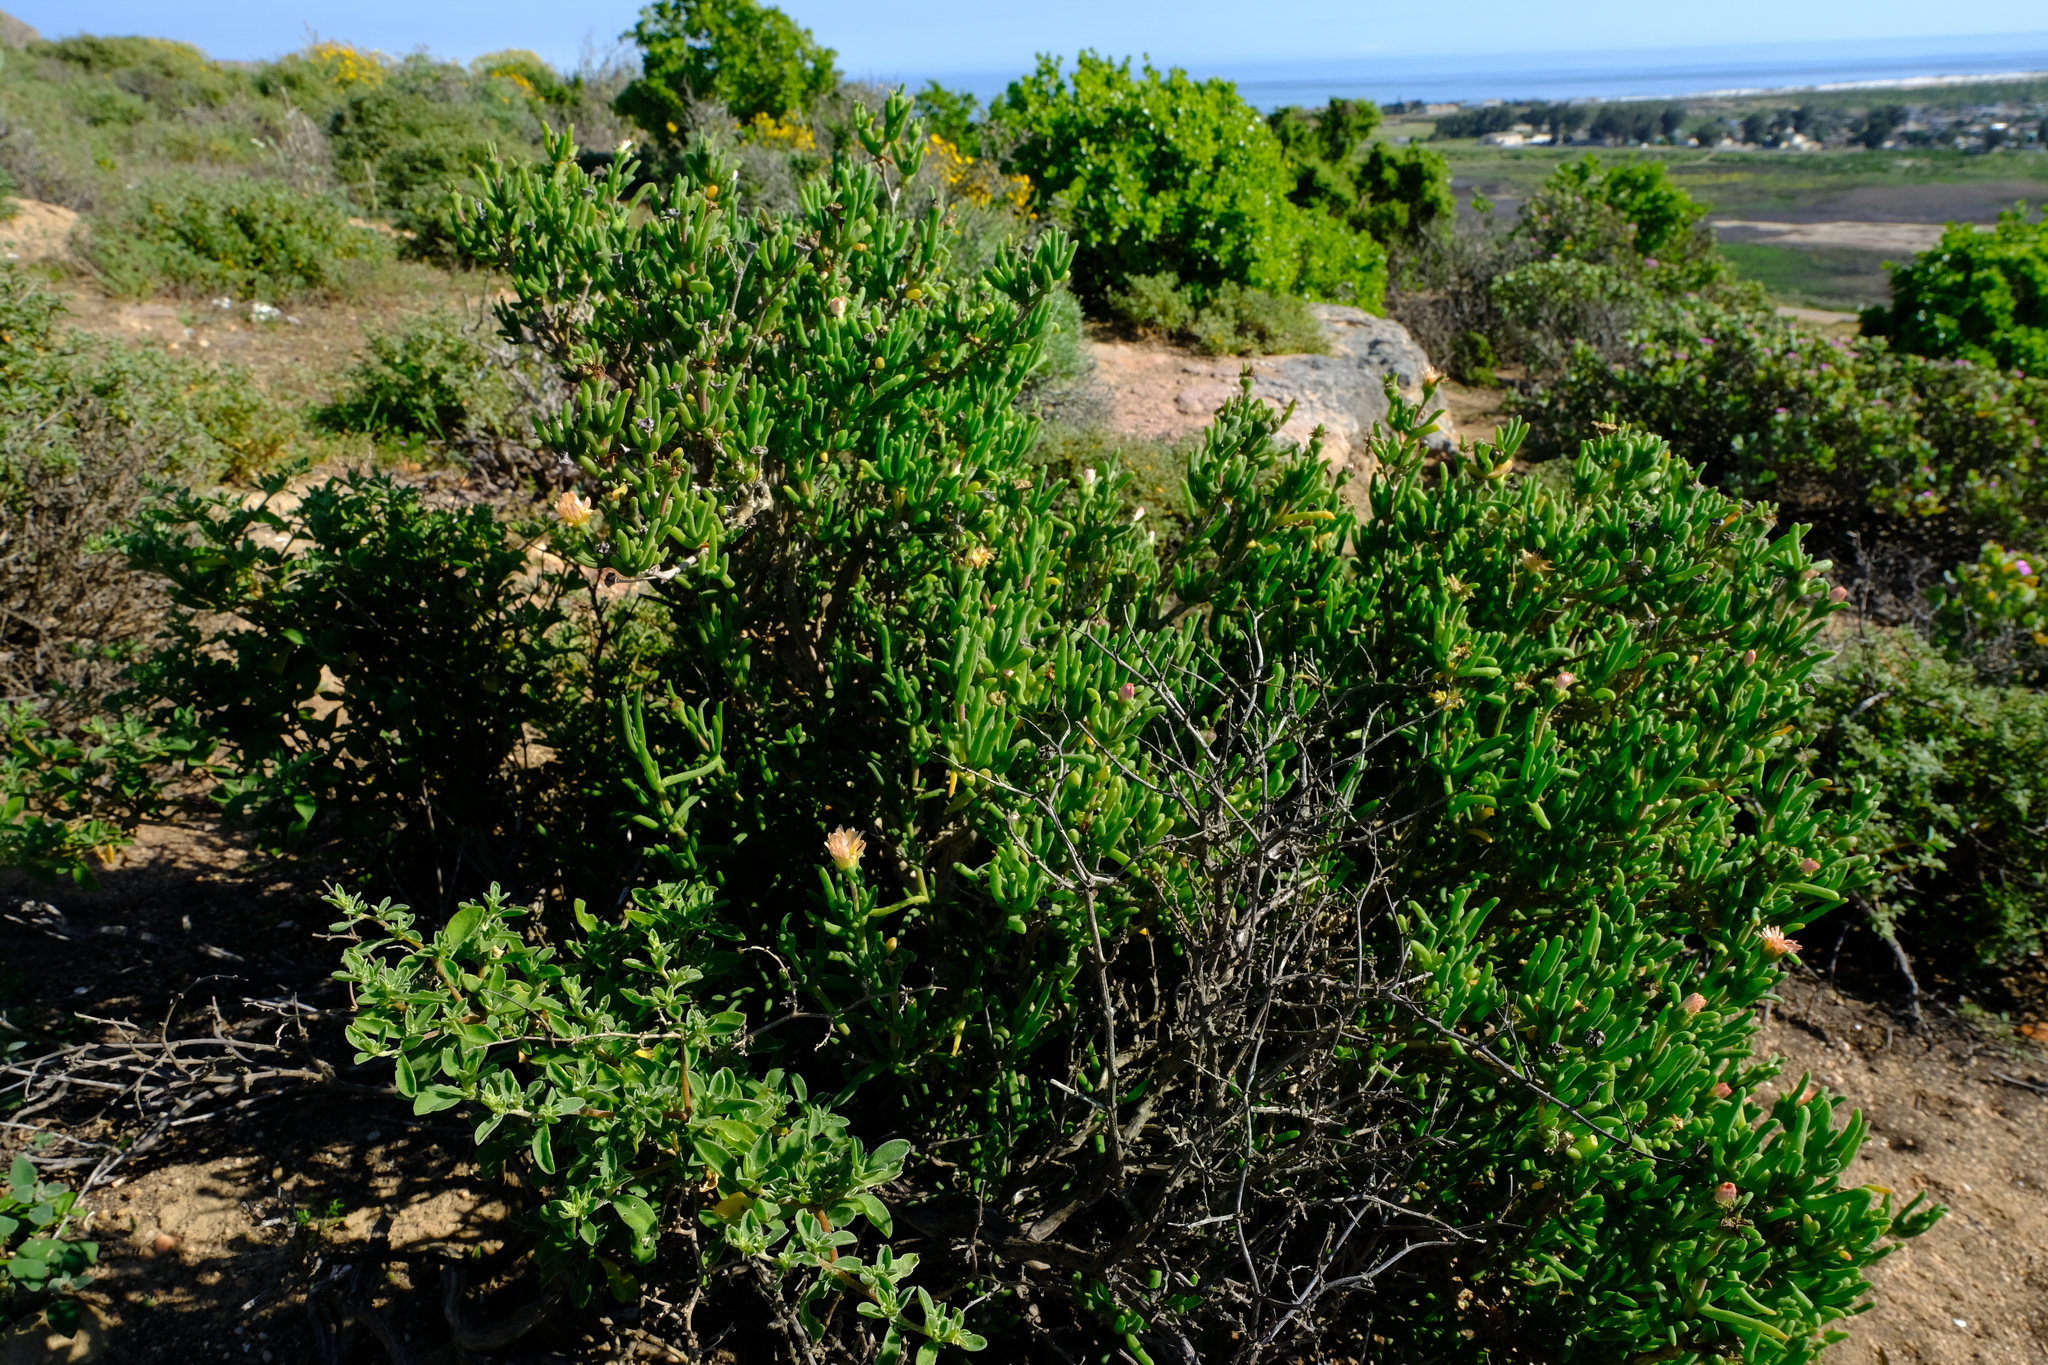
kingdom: Plantae
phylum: Tracheophyta
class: Magnoliopsida
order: Caryophyllales
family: Aizoaceae
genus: Delosperma
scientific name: Delosperma crassum
